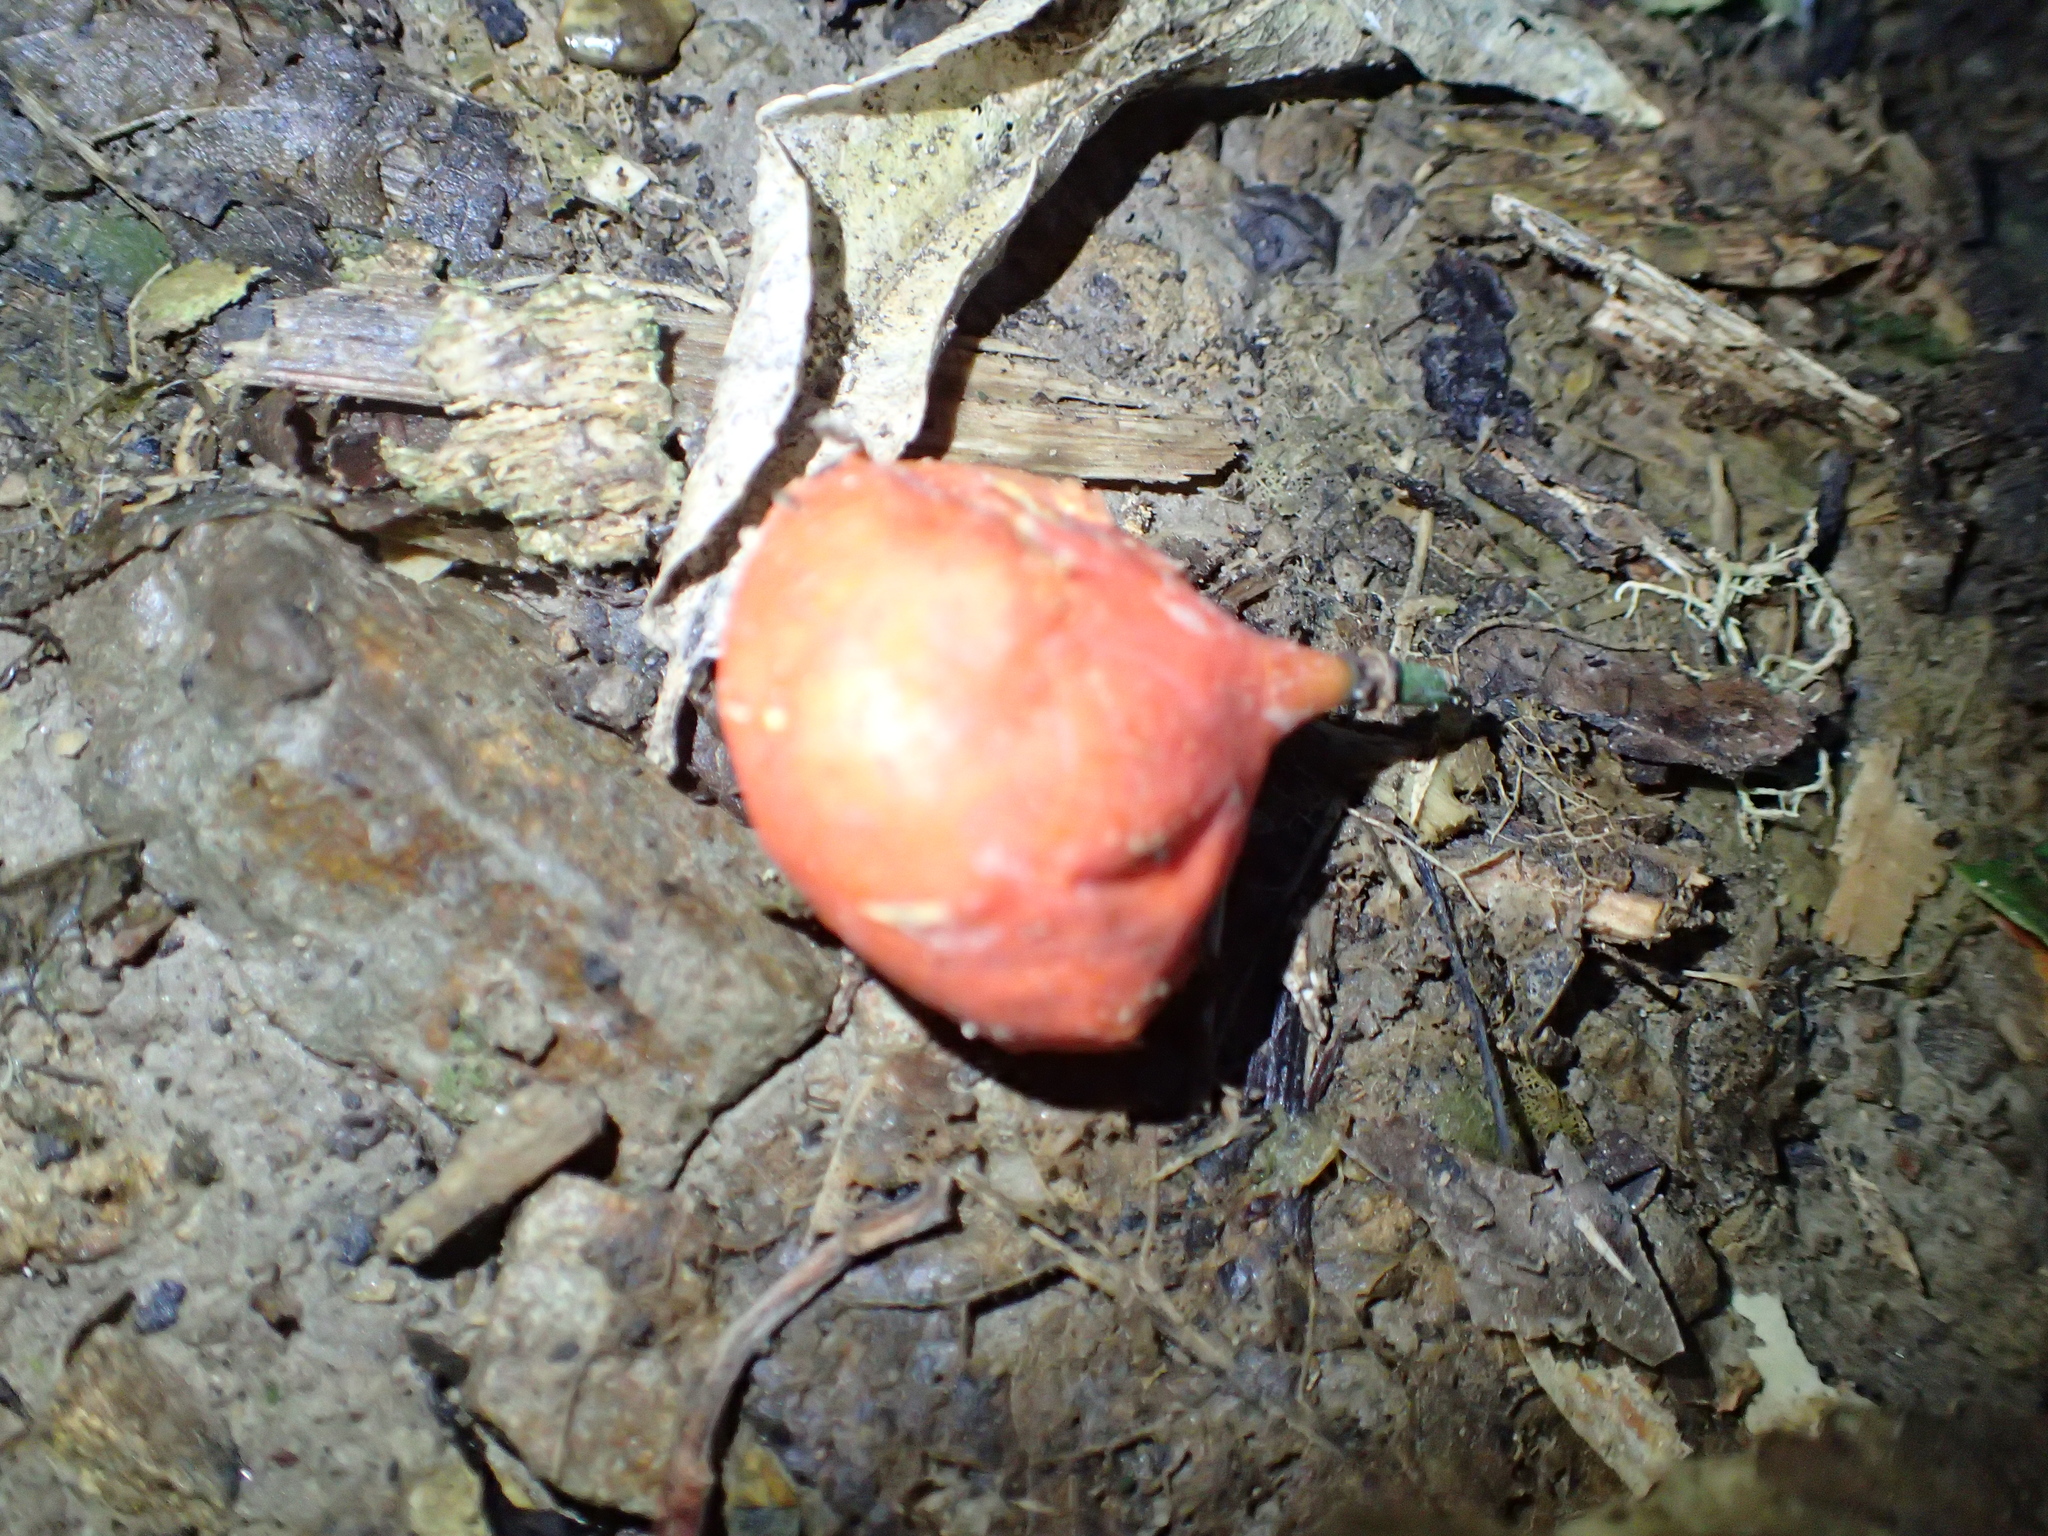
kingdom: Plantae
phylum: Tracheophyta
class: Magnoliopsida
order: Malpighiales
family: Passifloraceae
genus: Passiflora
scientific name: Passiflora tetrandra
